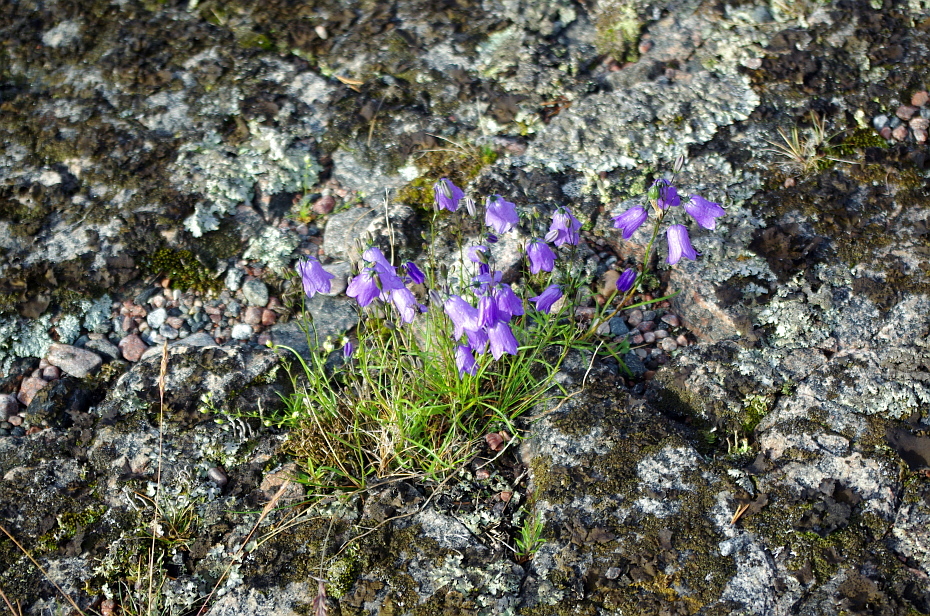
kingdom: Plantae
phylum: Tracheophyta
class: Magnoliopsida
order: Asterales
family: Campanulaceae
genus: Campanula
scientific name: Campanula rotundifolia
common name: Harebell
